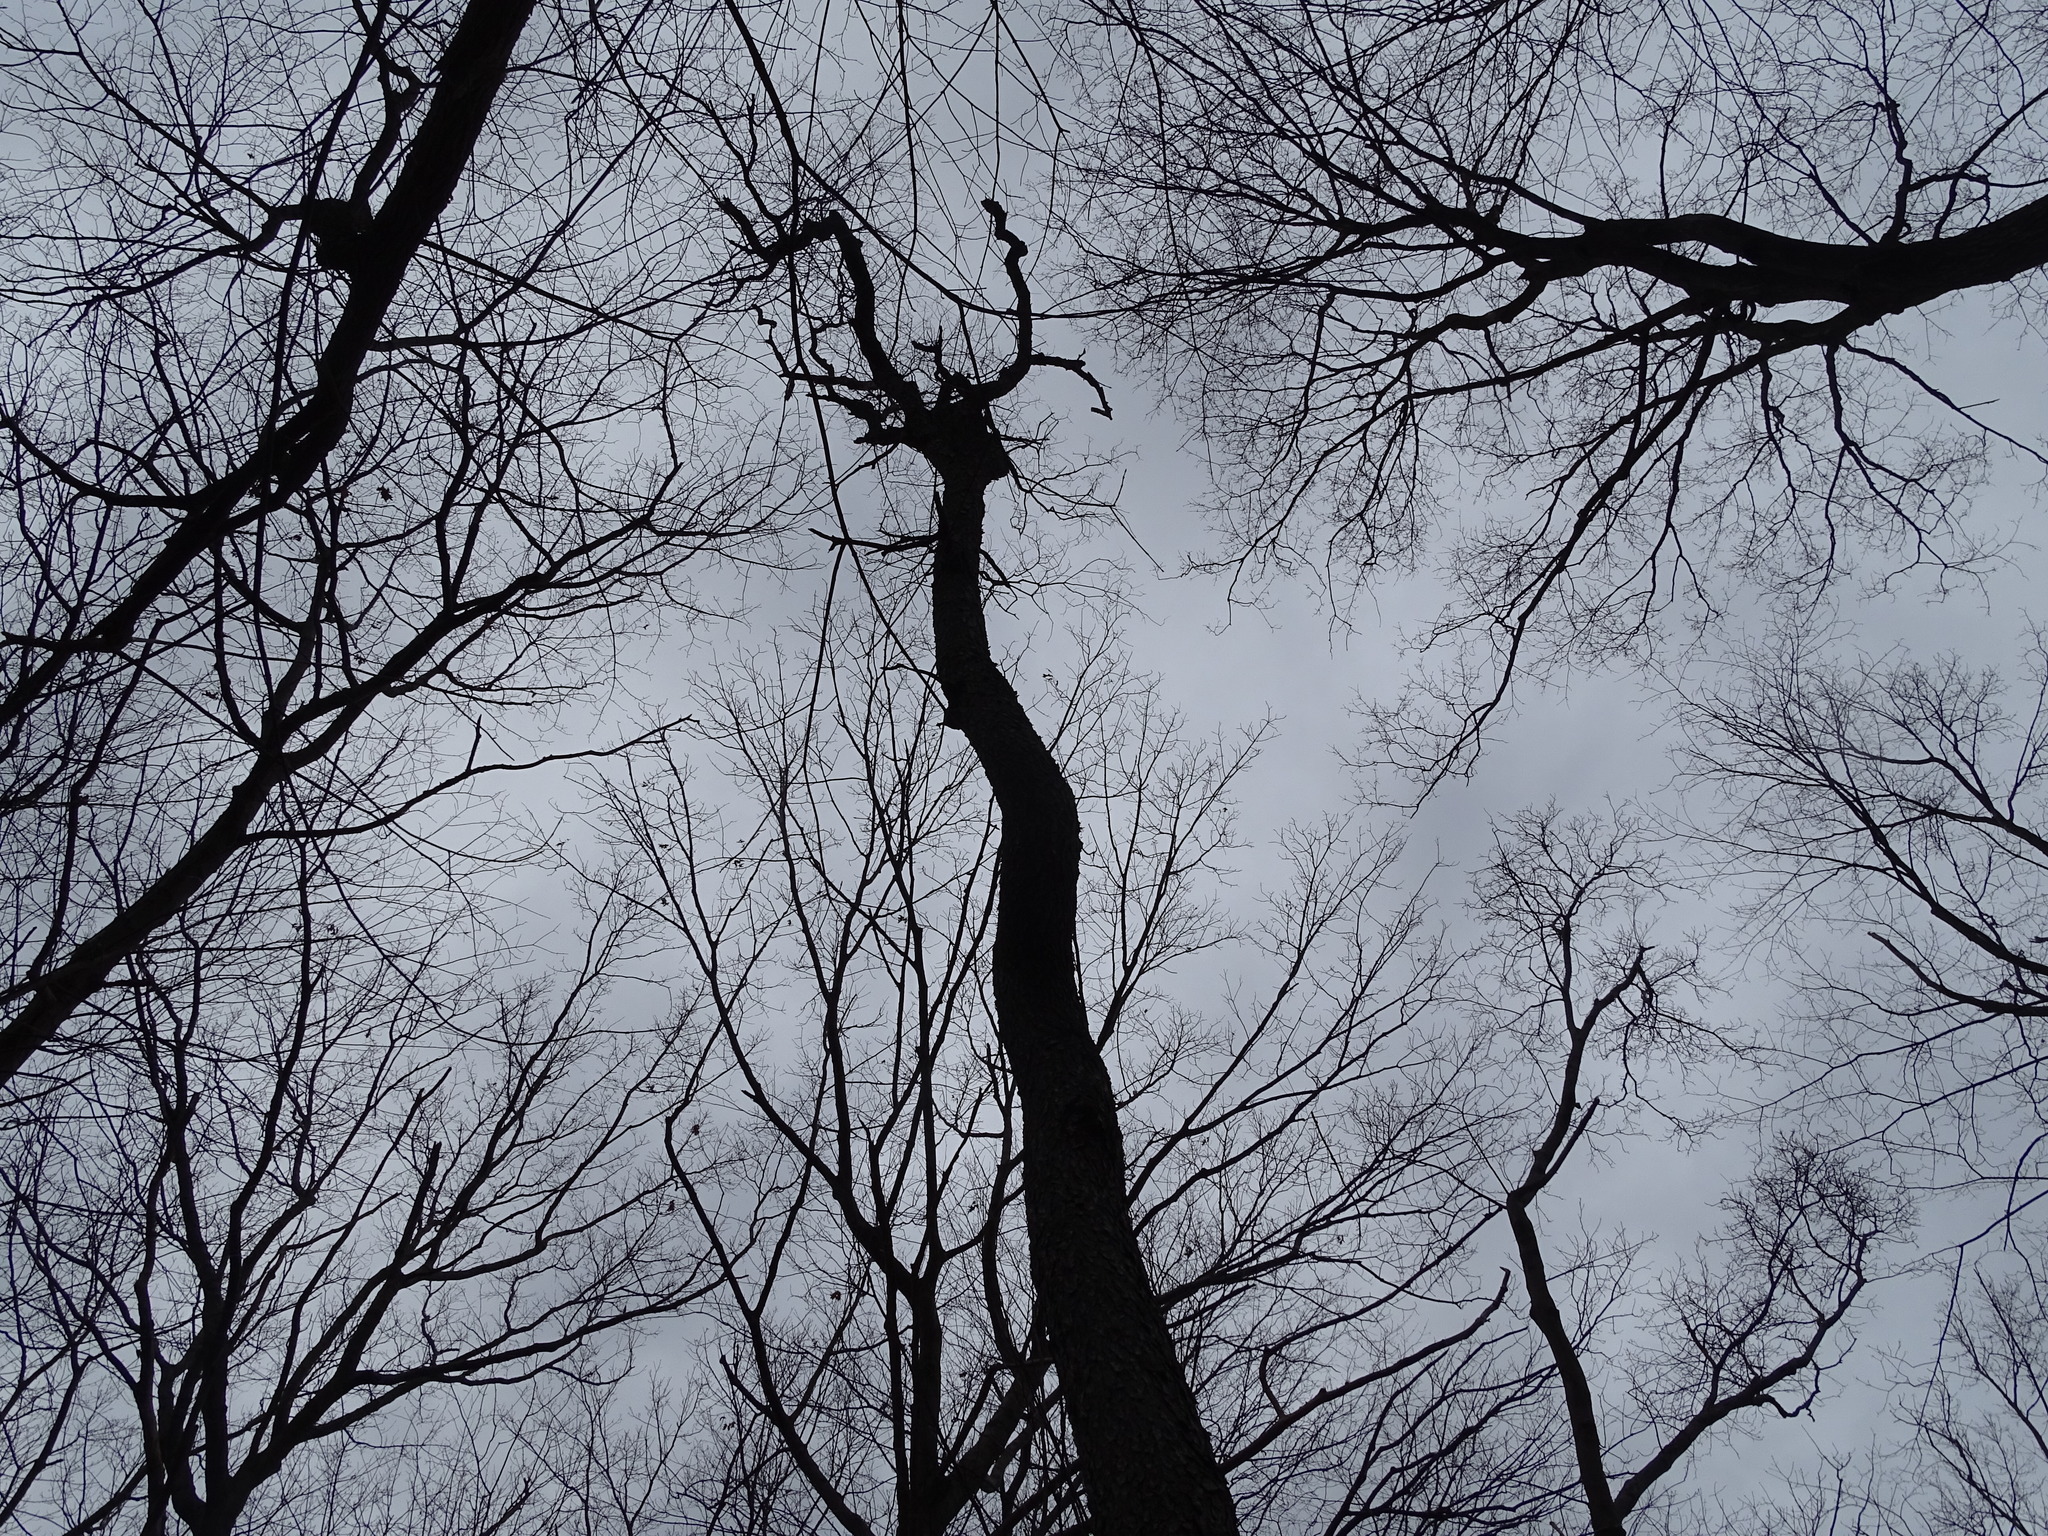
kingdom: Plantae
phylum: Tracheophyta
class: Magnoliopsida
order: Rosales
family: Rosaceae
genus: Prunus
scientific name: Prunus serotina
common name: Black cherry
